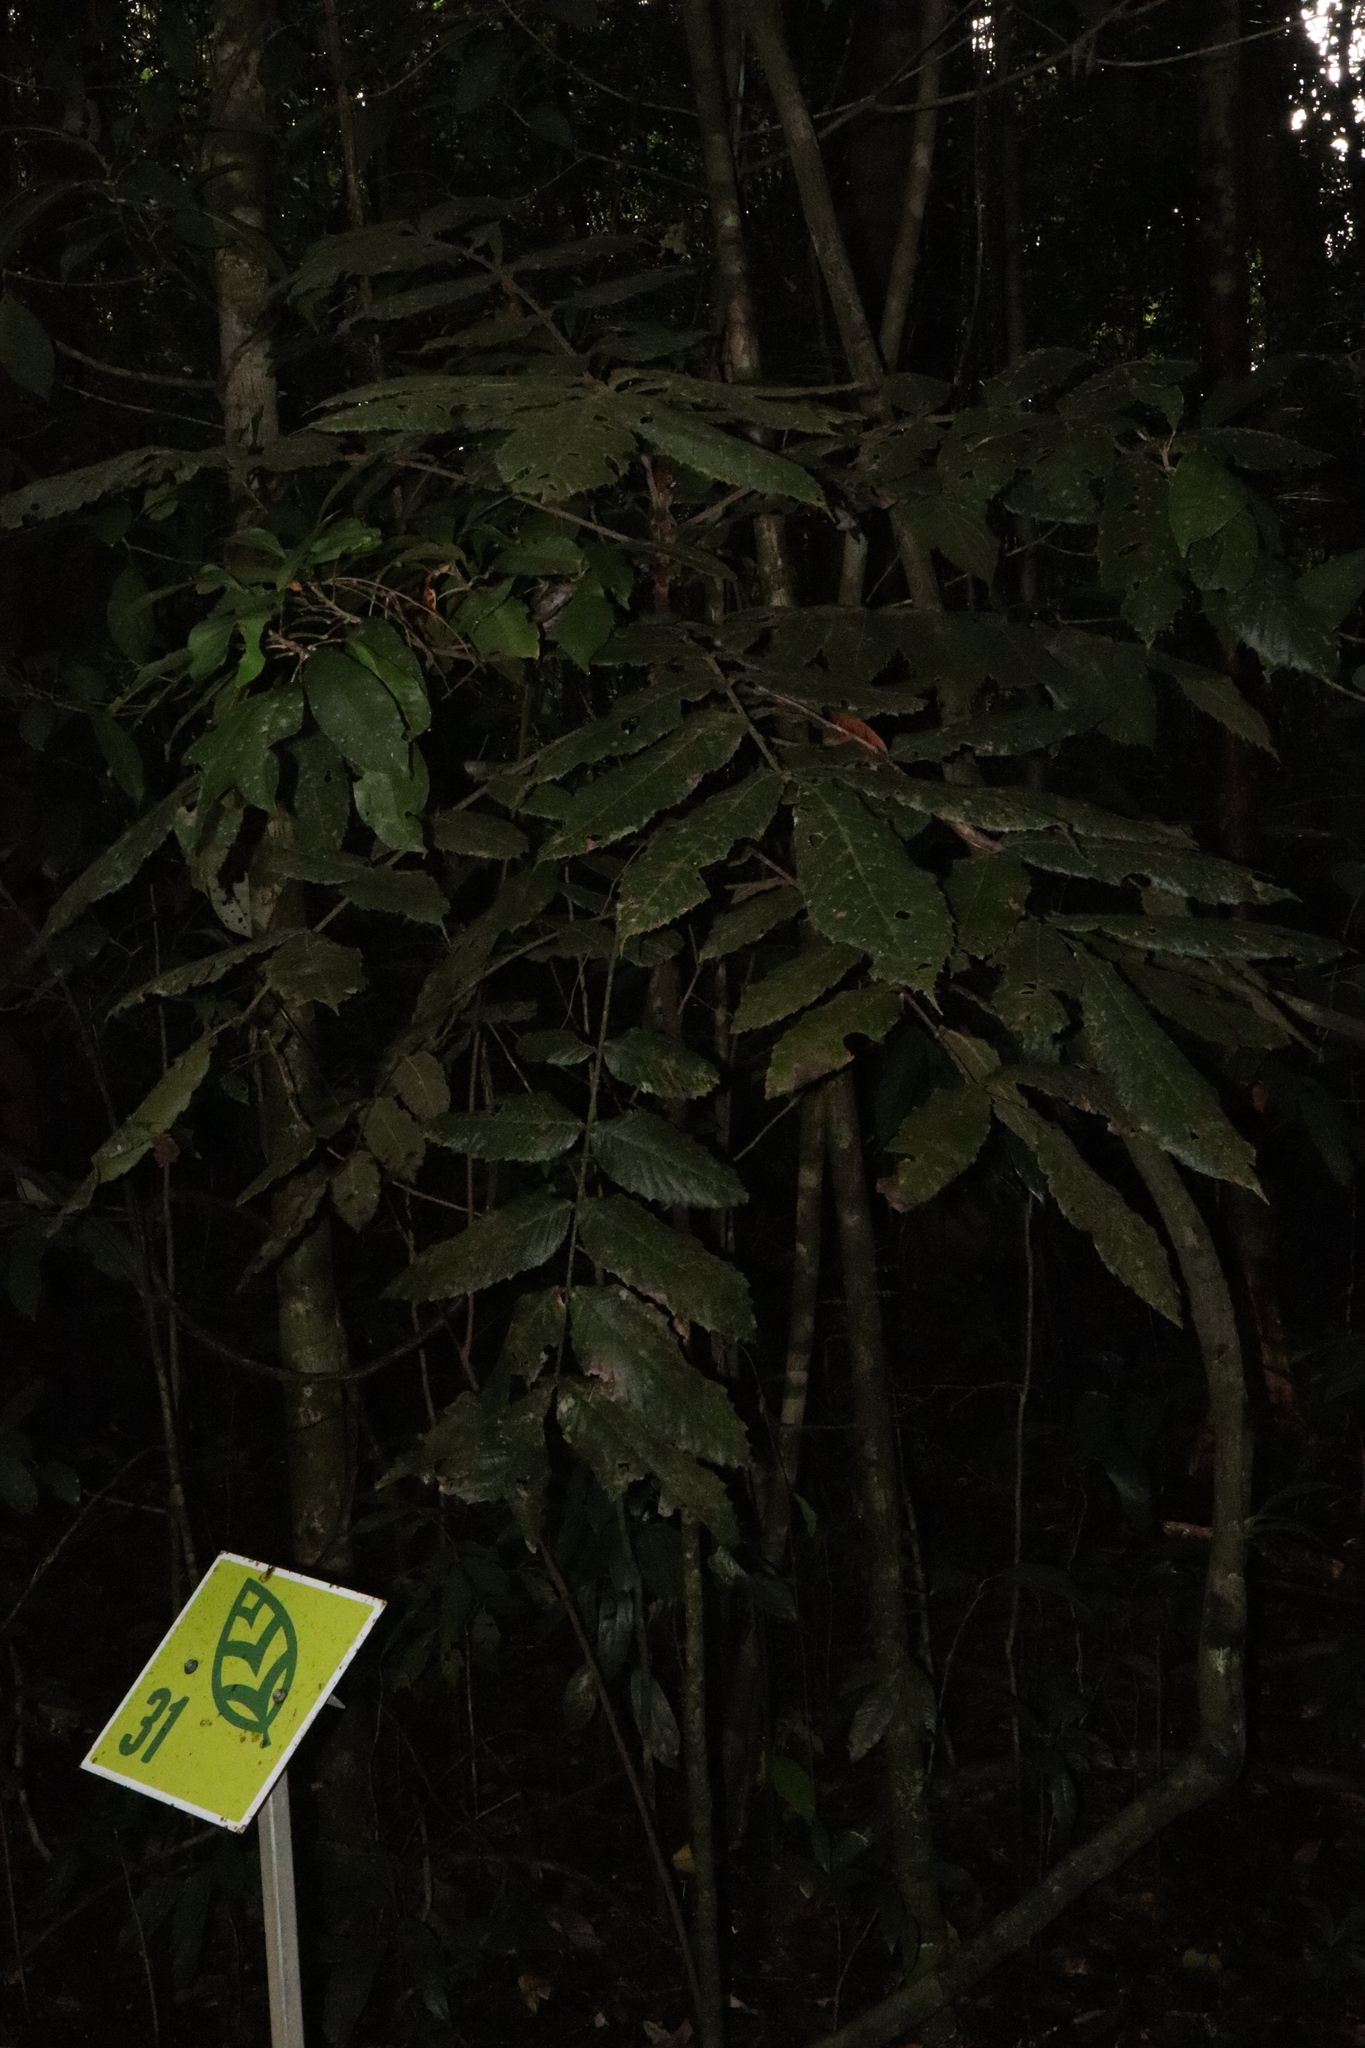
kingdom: Plantae
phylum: Tracheophyta
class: Magnoliopsida
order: Oxalidales
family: Cunoniaceae
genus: Davidsonia
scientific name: Davidsonia pruriens
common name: Do-rog
